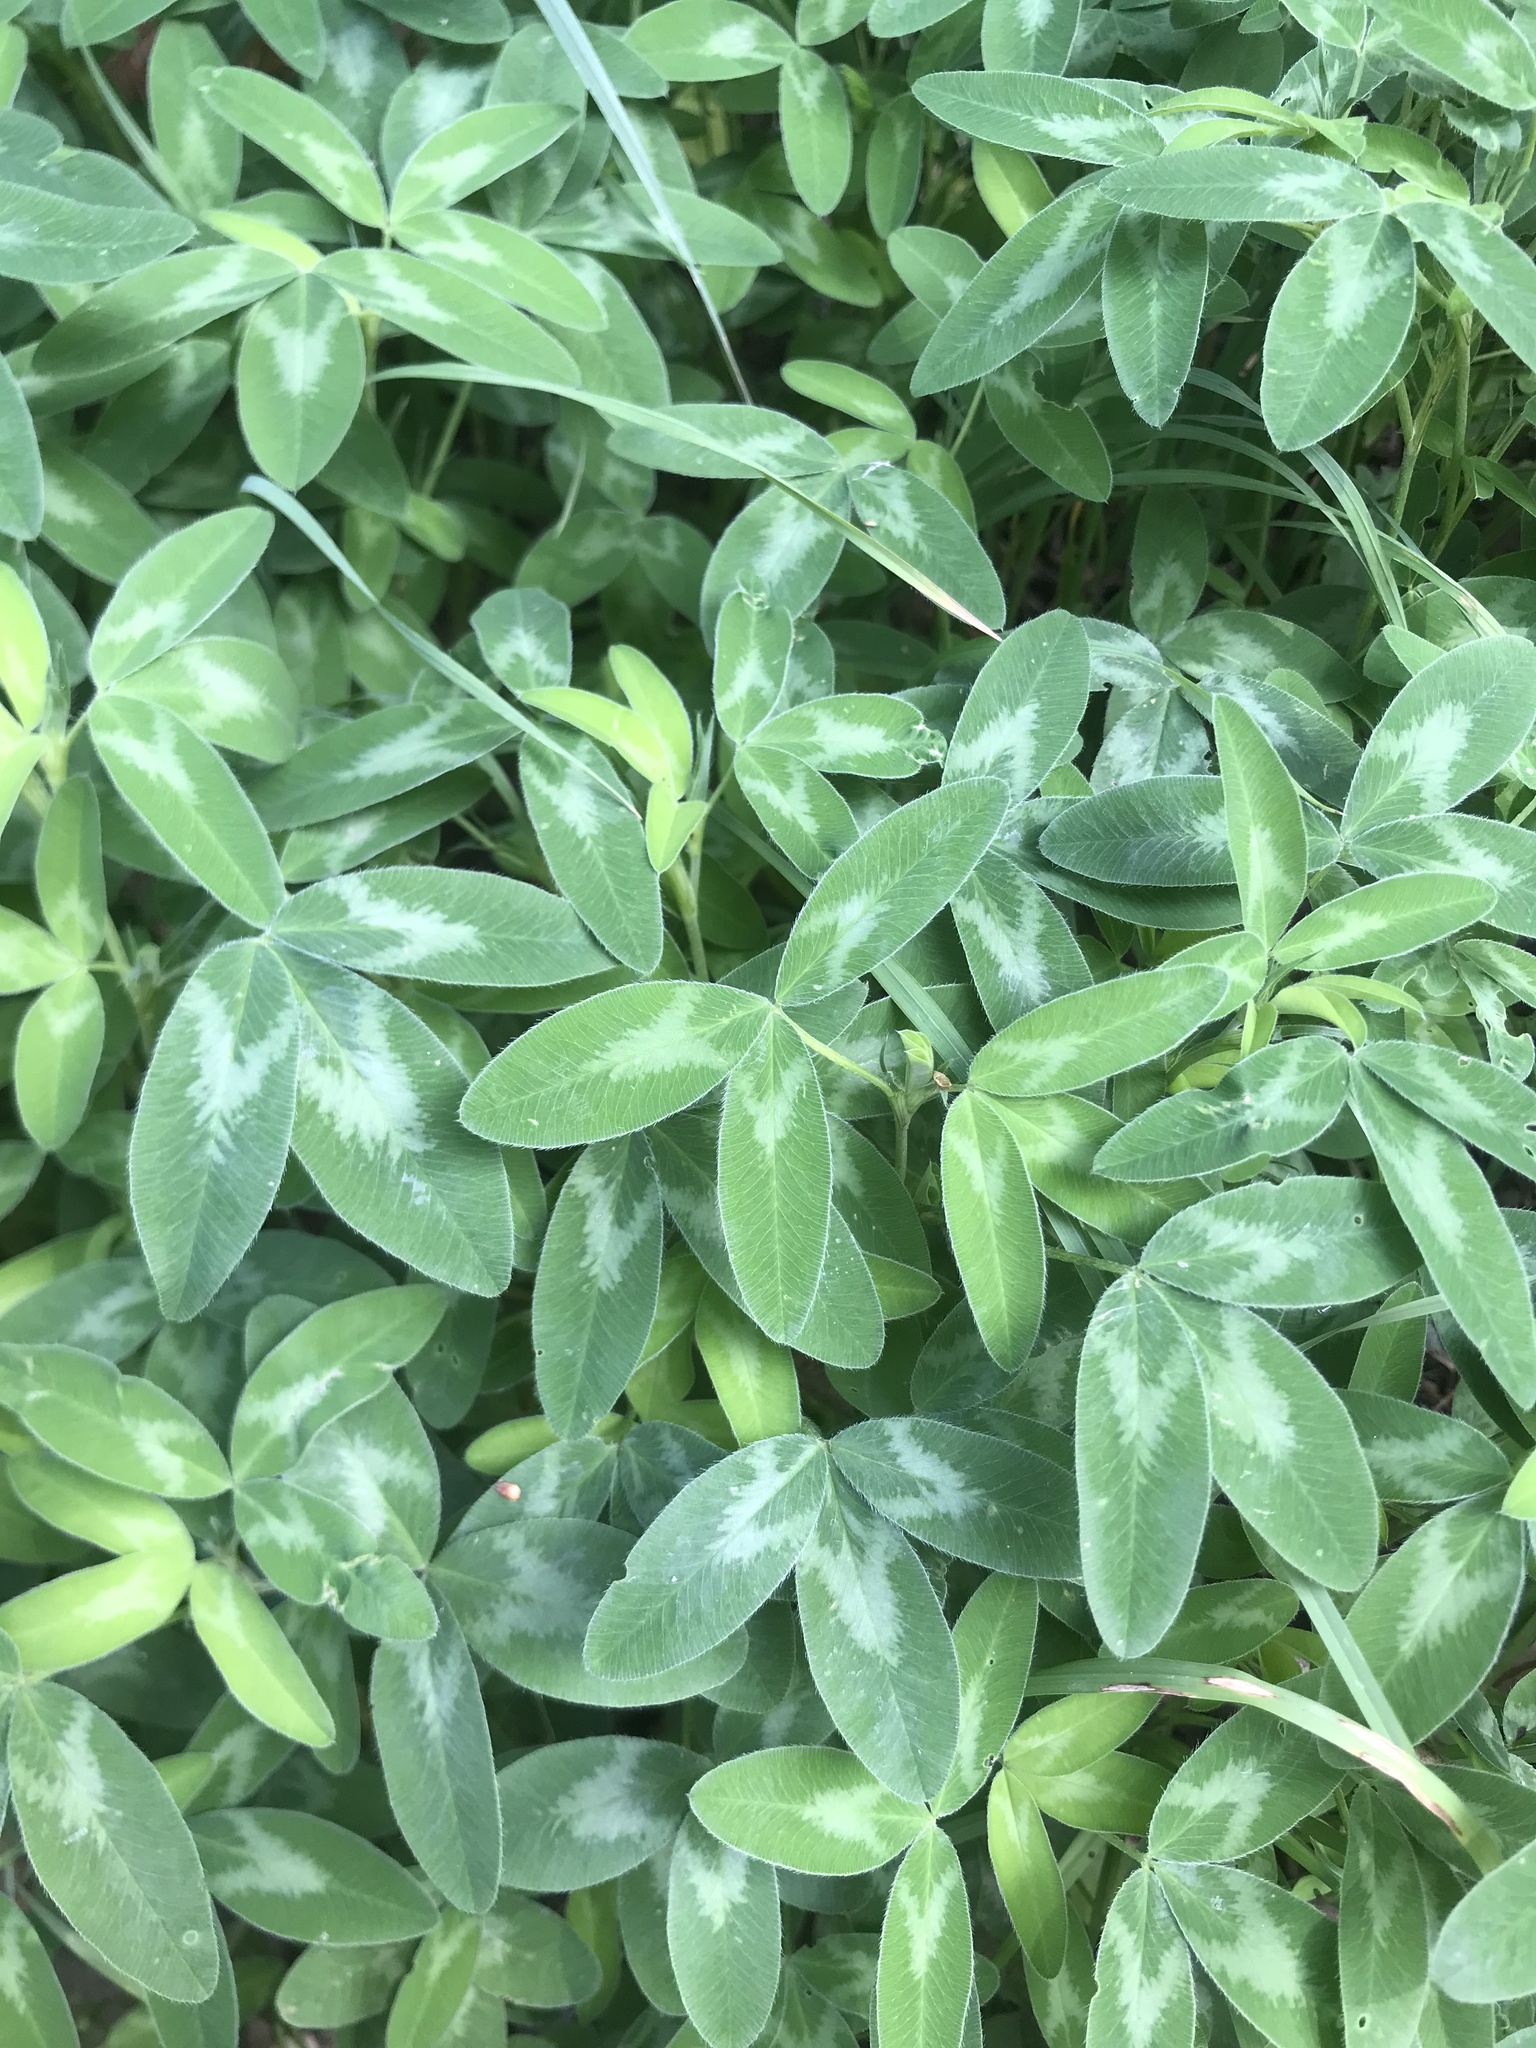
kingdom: Plantae
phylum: Tracheophyta
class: Magnoliopsida
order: Fabales
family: Fabaceae
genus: Trifolium
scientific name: Trifolium medium
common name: Zigzag clover
